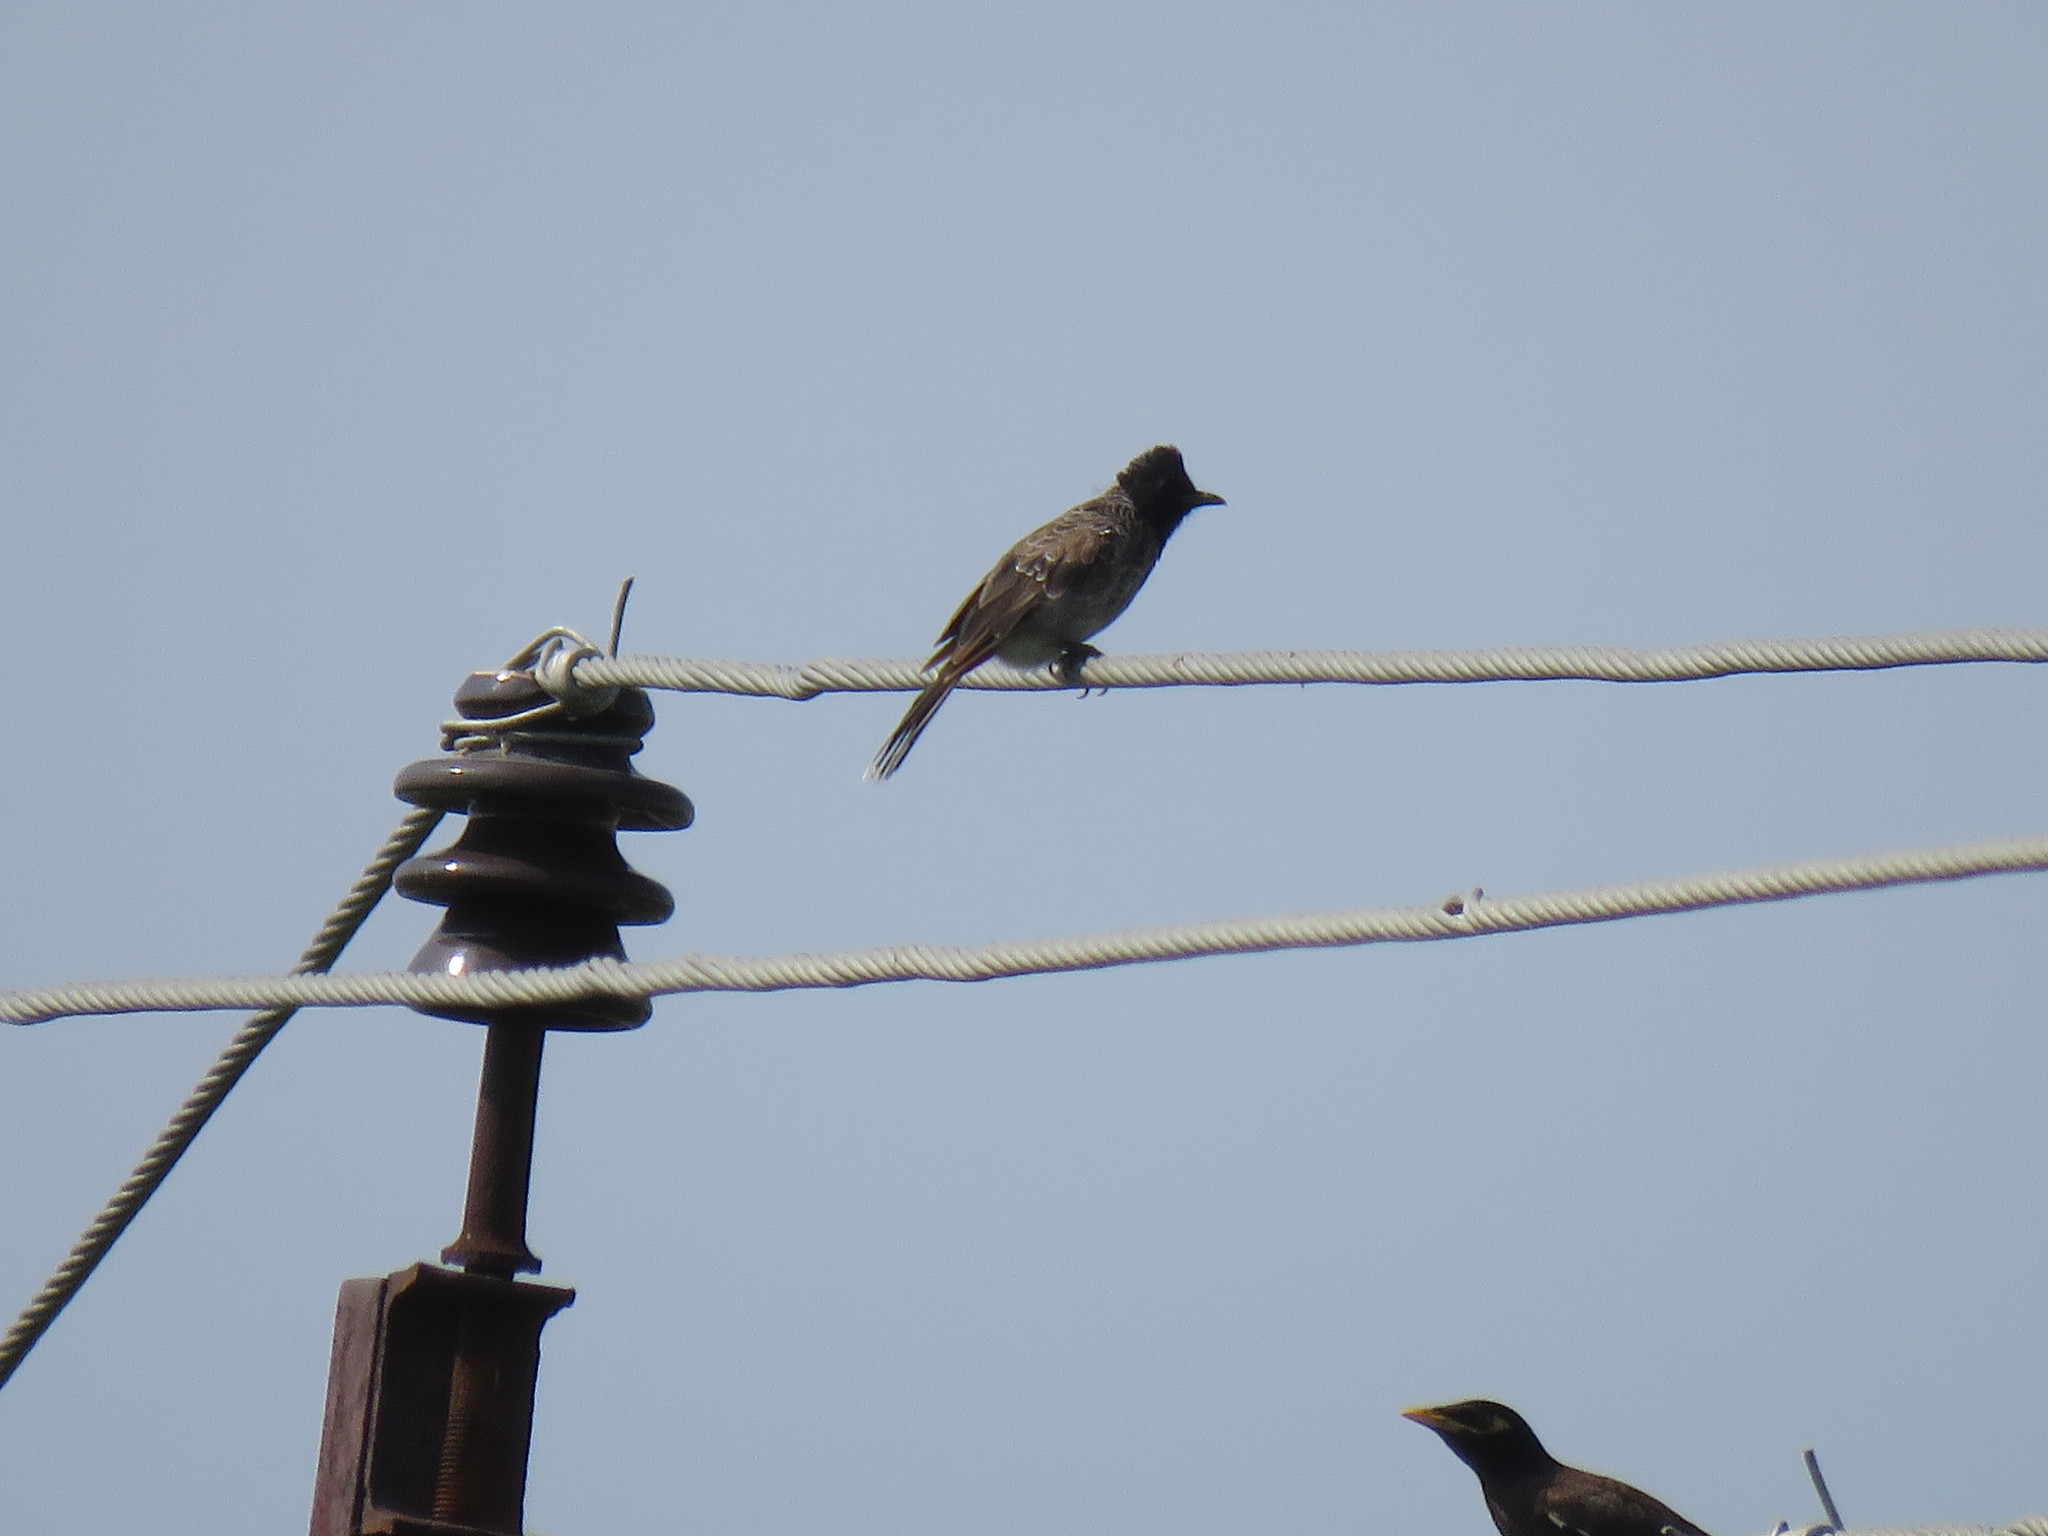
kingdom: Animalia
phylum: Chordata
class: Aves
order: Passeriformes
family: Pycnonotidae
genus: Pycnonotus
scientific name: Pycnonotus cafer
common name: Red-vented bulbul
